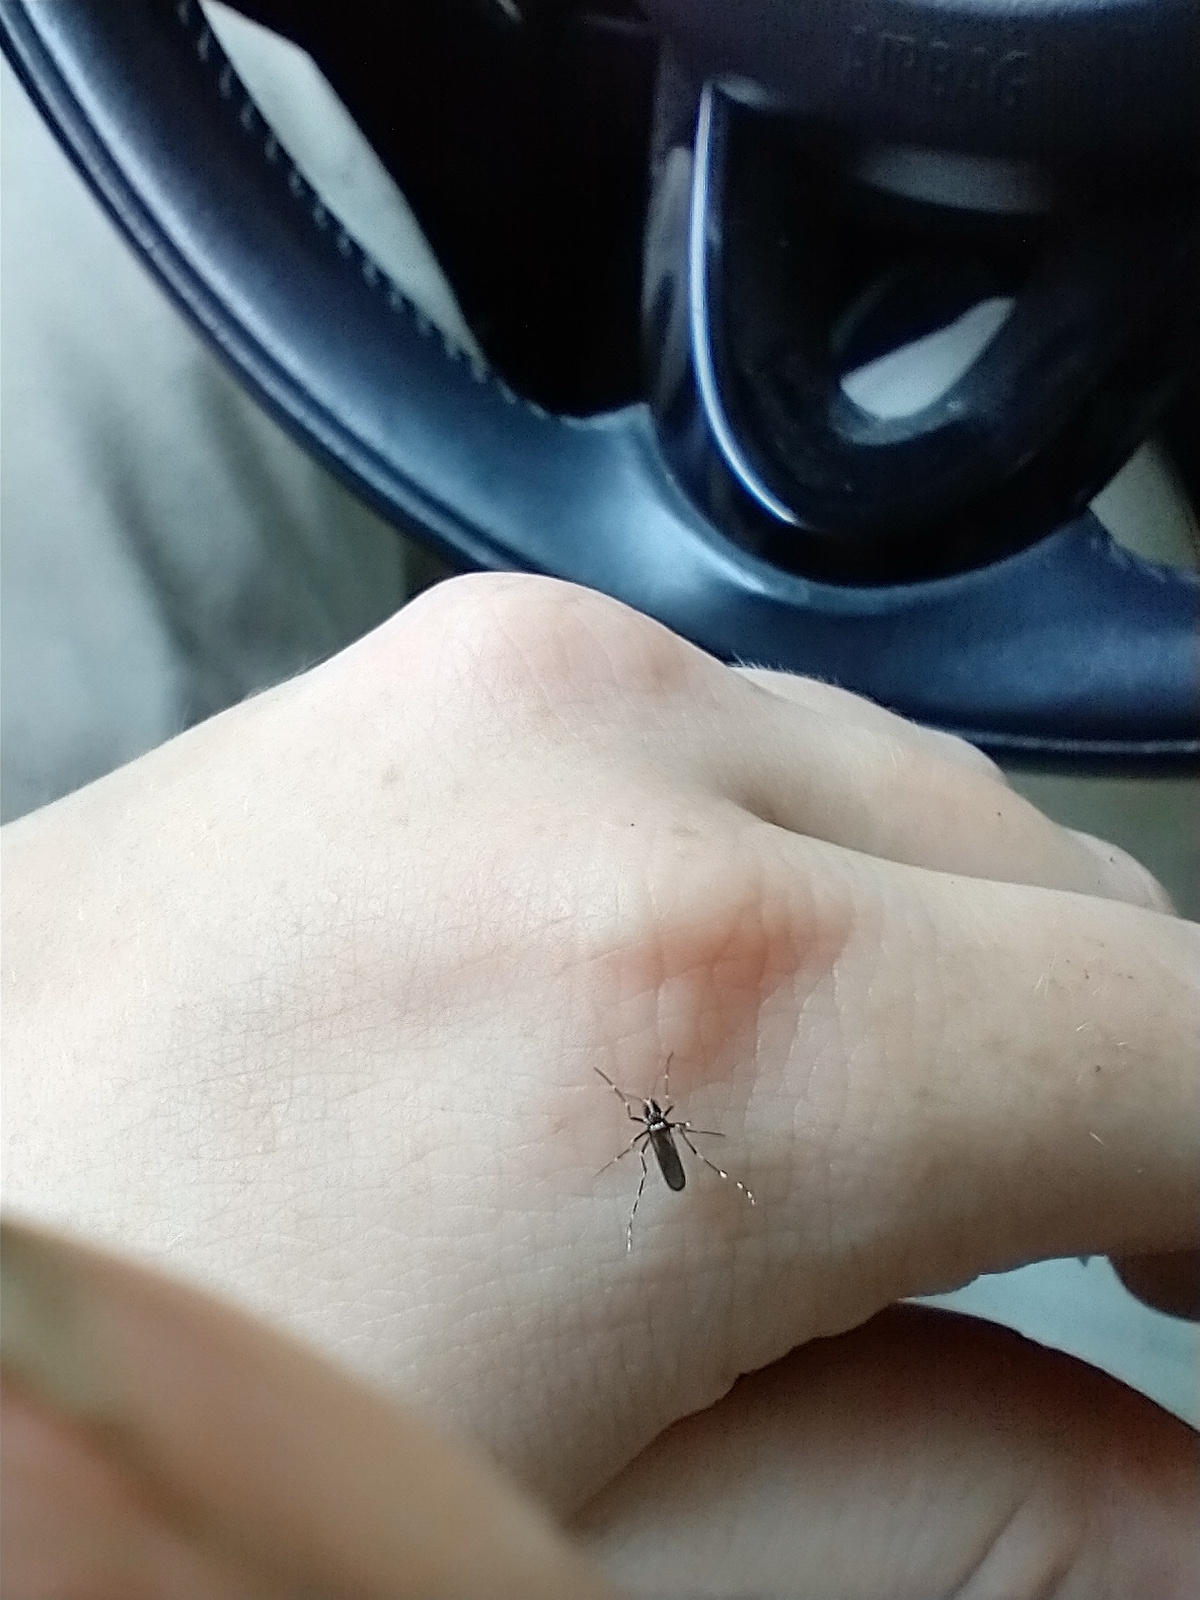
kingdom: Animalia
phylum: Arthropoda
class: Insecta
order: Diptera
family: Culicidae
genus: Aedes
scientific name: Aedes albopictus
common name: Tiger mosquito
